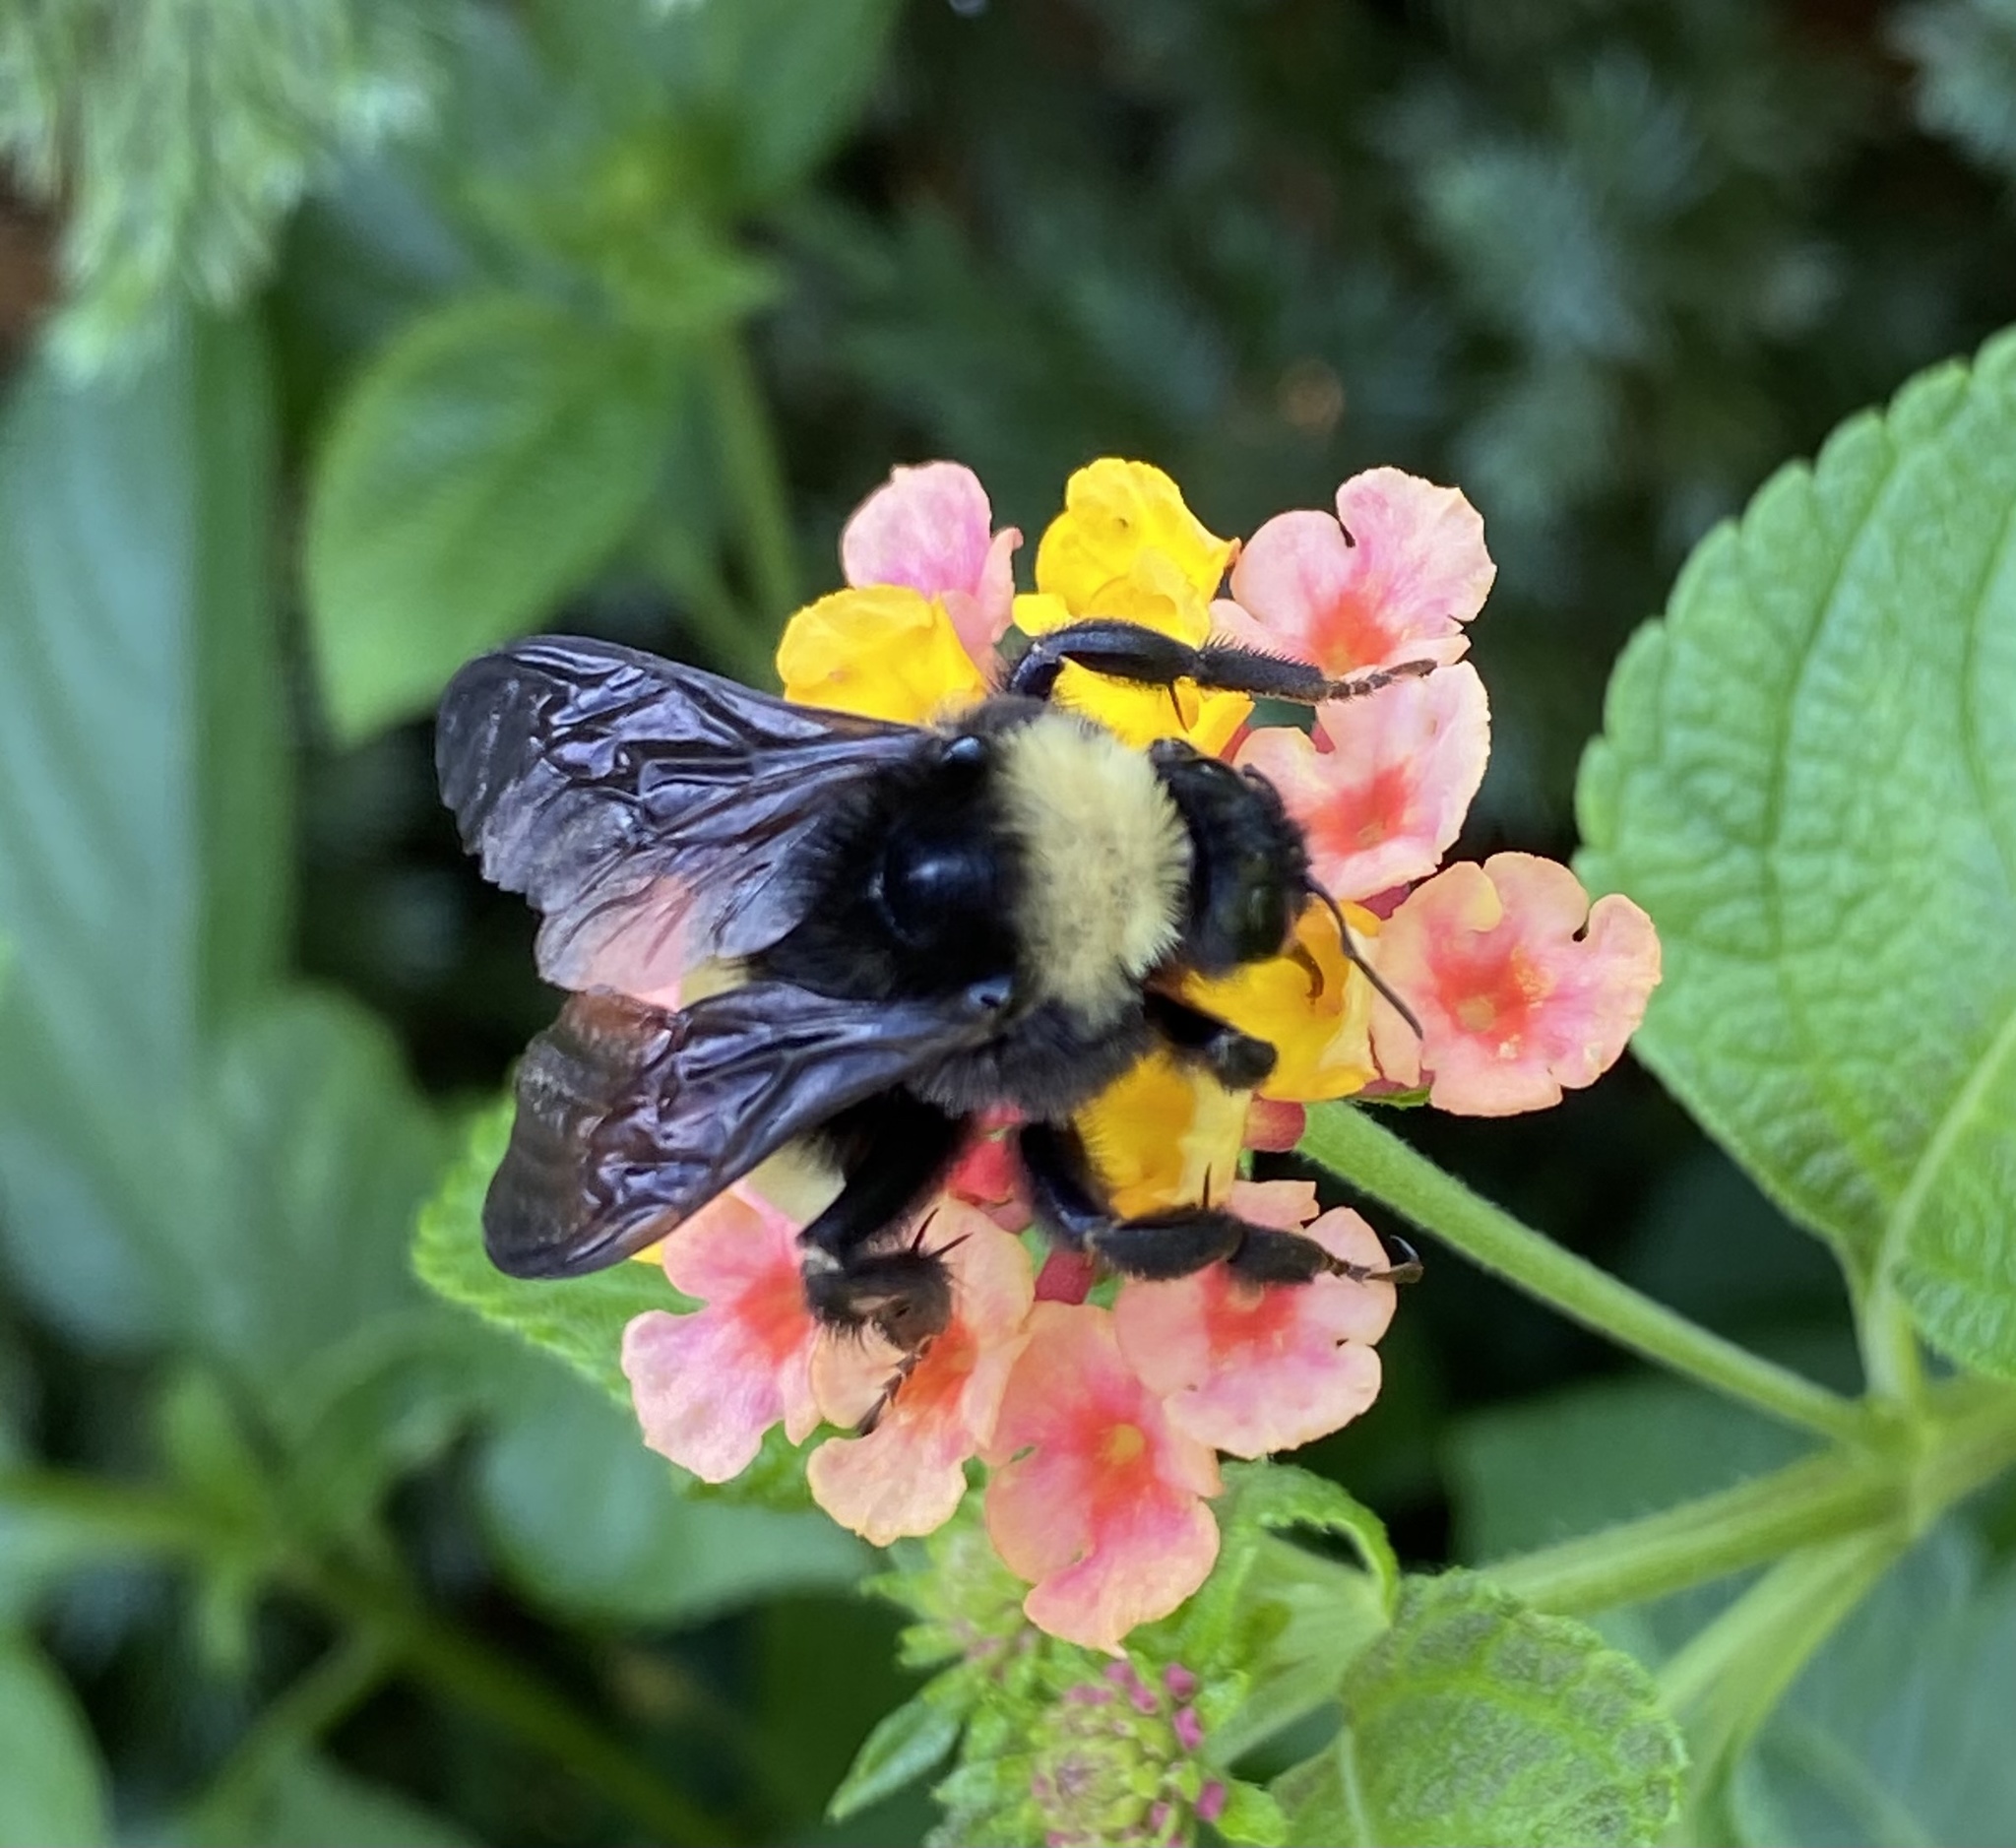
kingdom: Animalia
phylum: Arthropoda
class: Insecta
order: Hymenoptera
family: Apidae
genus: Bombus
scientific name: Bombus pensylvanicus
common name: Bumble bee
